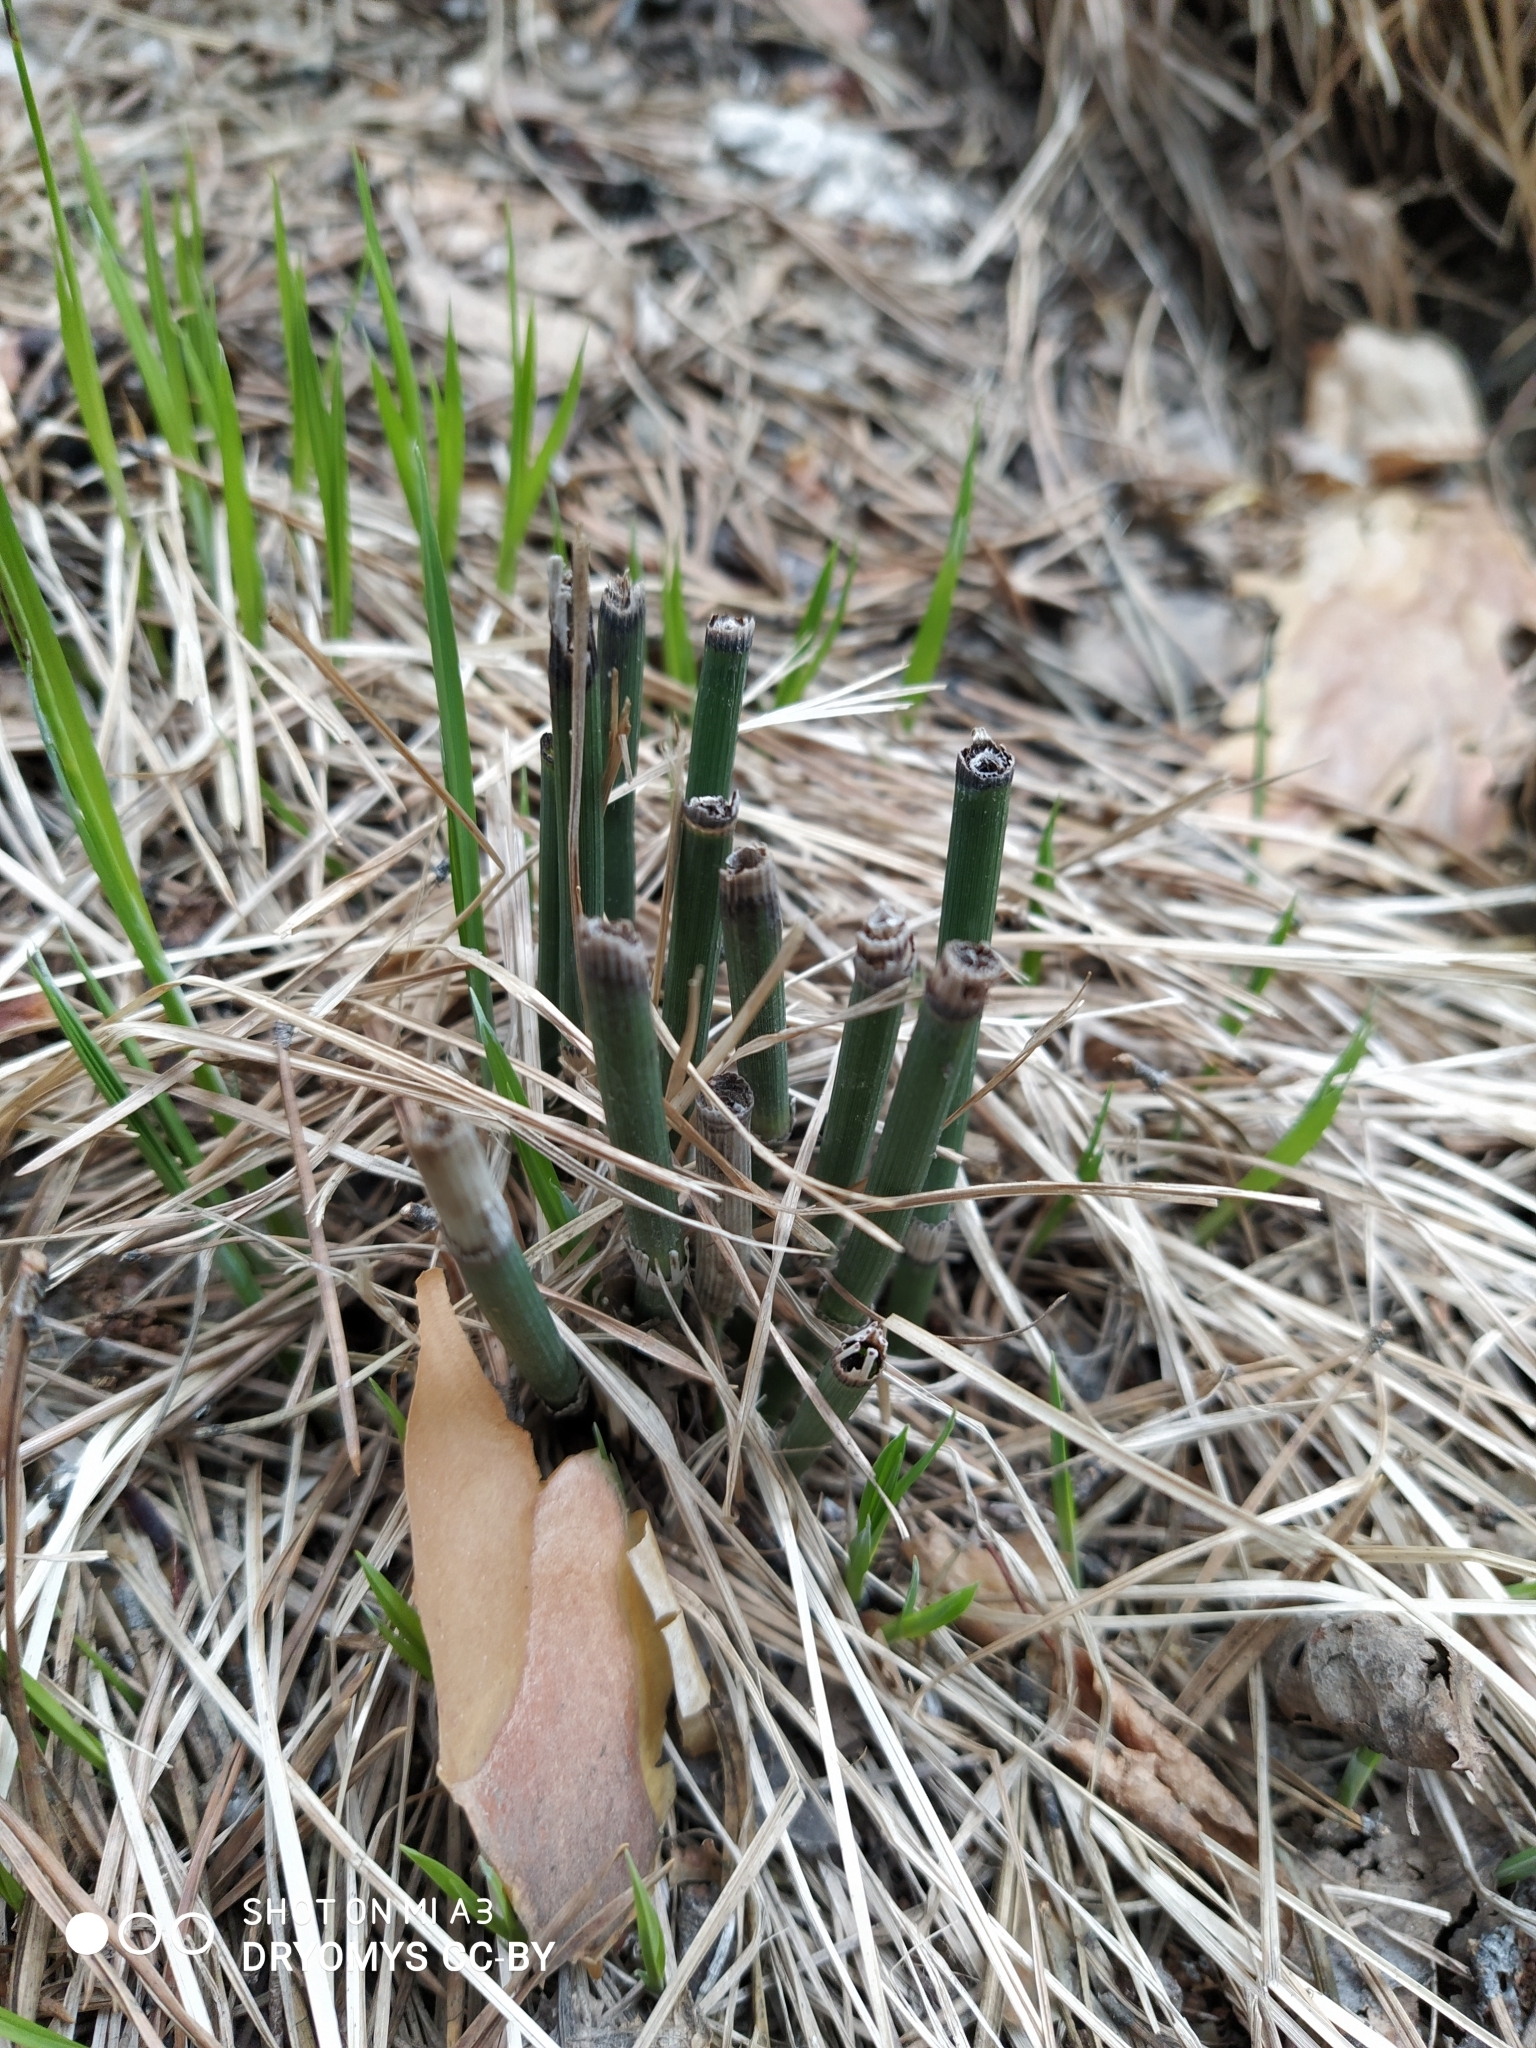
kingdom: Plantae
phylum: Tracheophyta
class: Polypodiopsida
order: Equisetales
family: Equisetaceae
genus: Equisetum
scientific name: Equisetum hyemale
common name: Rough horsetail
